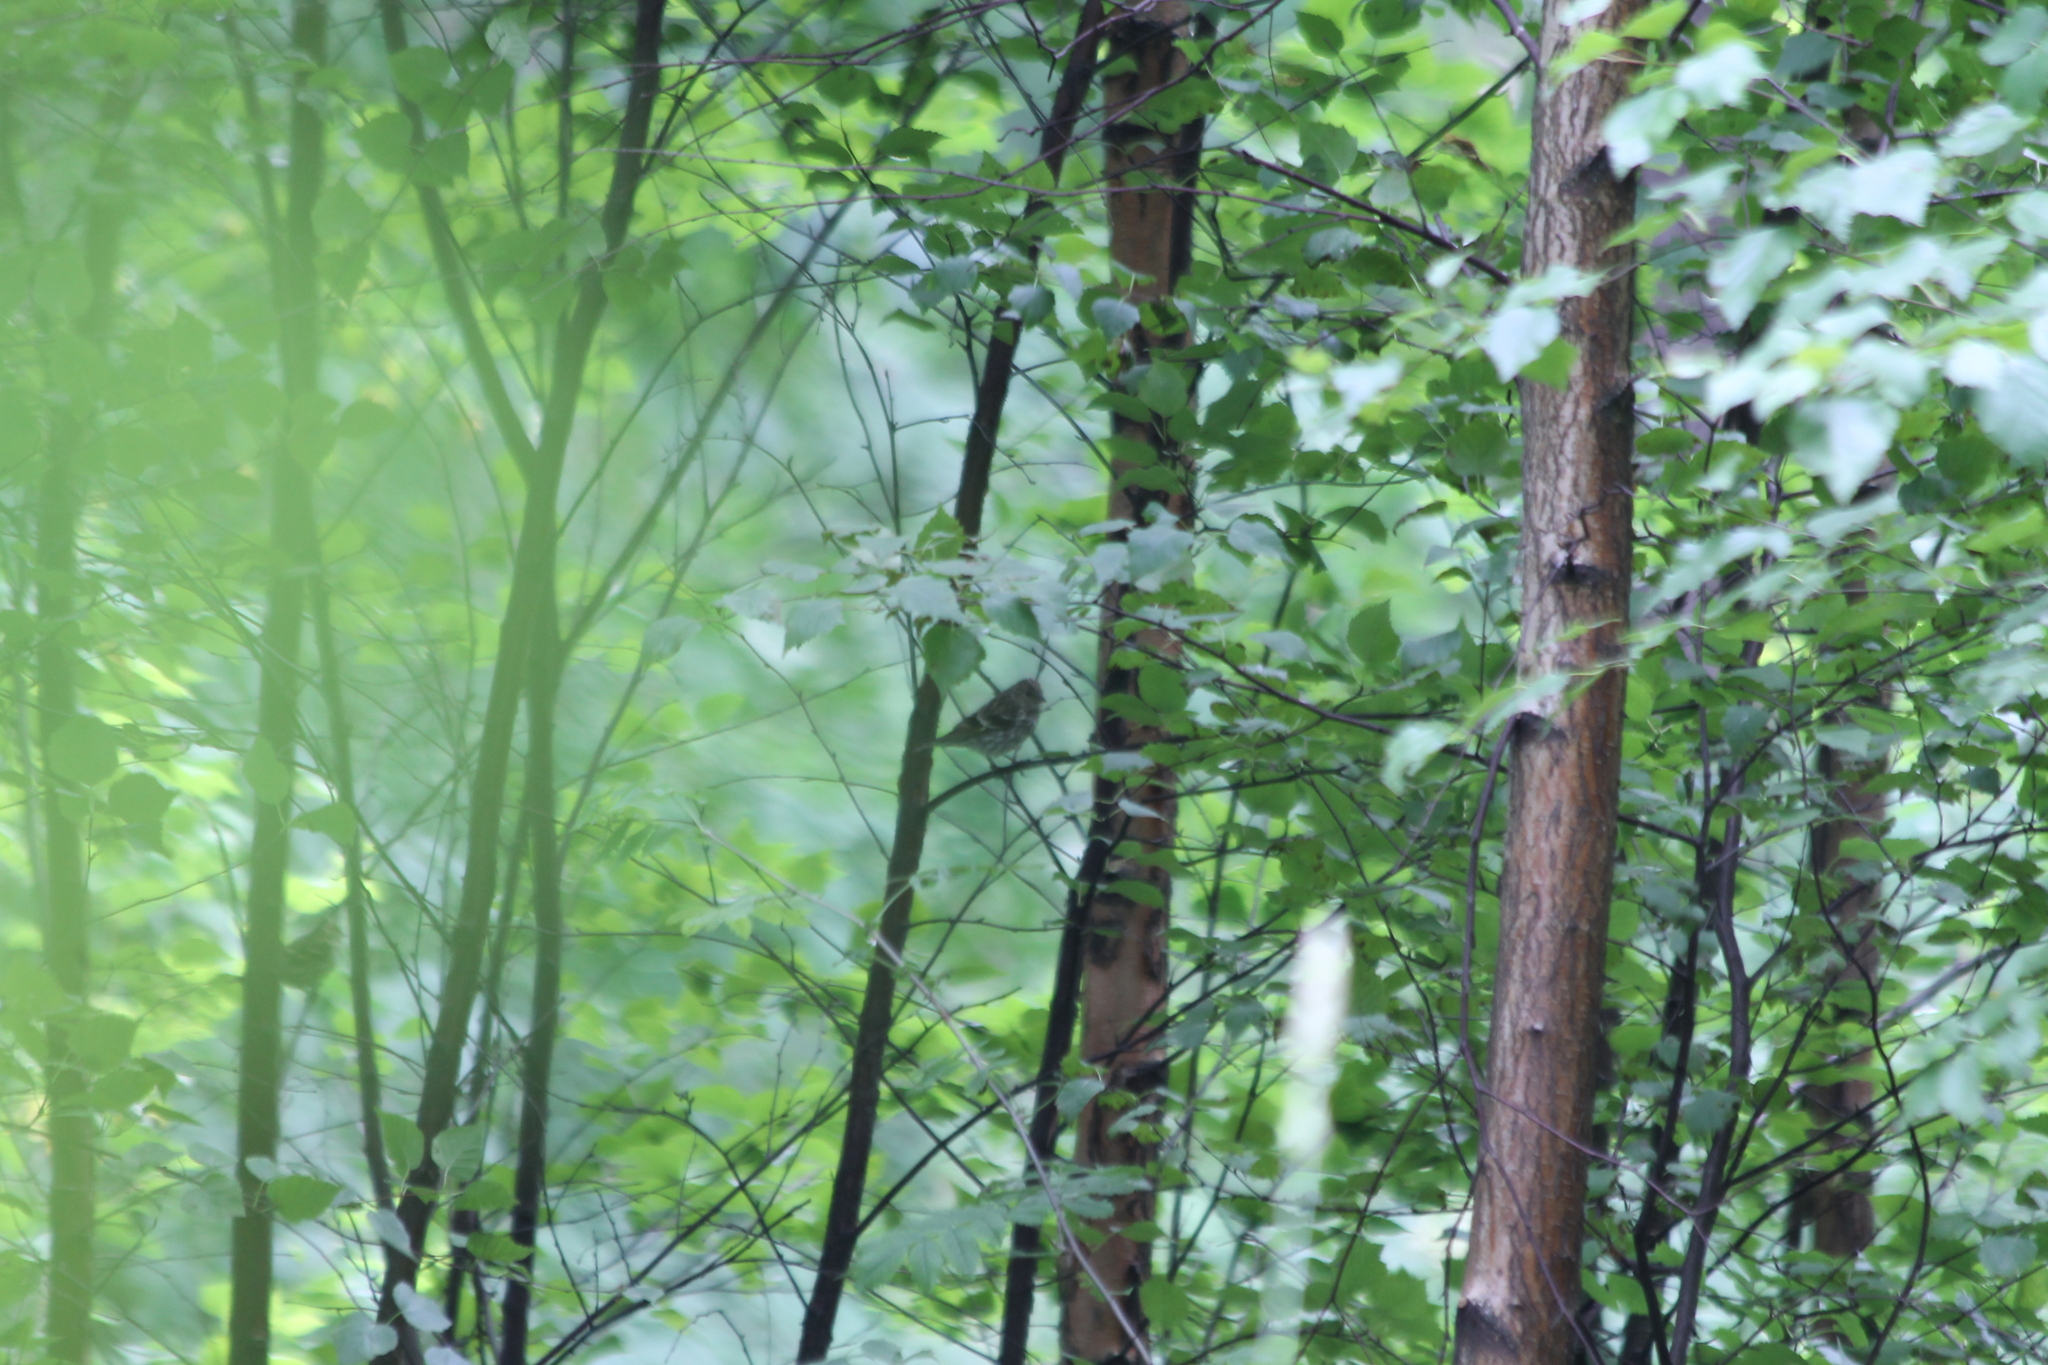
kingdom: Animalia
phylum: Chordata
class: Aves
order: Passeriformes
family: Fringillidae
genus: Spinus
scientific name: Spinus spinus
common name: Eurasian siskin
